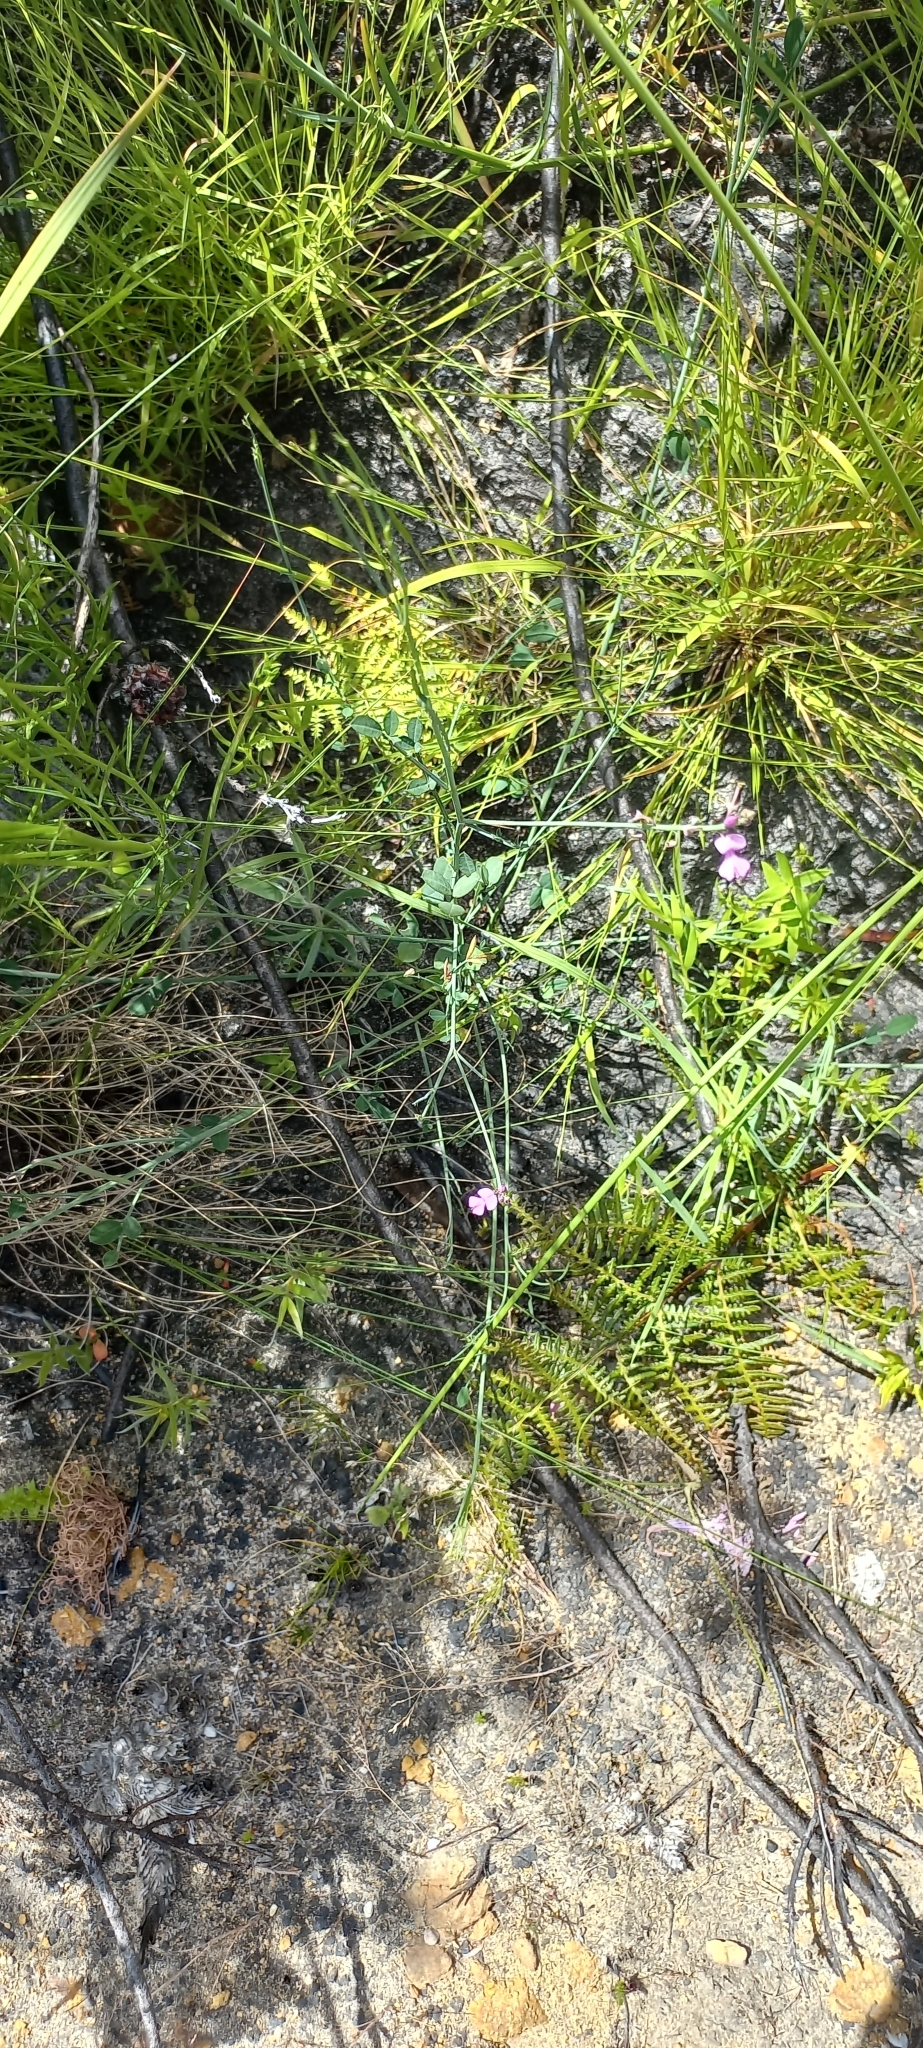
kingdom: Plantae
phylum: Tracheophyta
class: Magnoliopsida
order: Fabales
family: Fabaceae
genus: Indigofera
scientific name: Indigofera ionii
